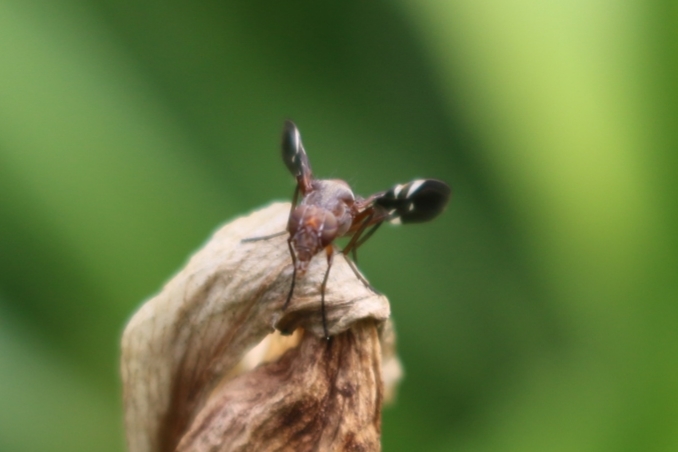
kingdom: Animalia
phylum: Arthropoda
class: Insecta
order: Diptera
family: Ulidiidae
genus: Delphinia
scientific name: Delphinia picta
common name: Common picture-winged fly
